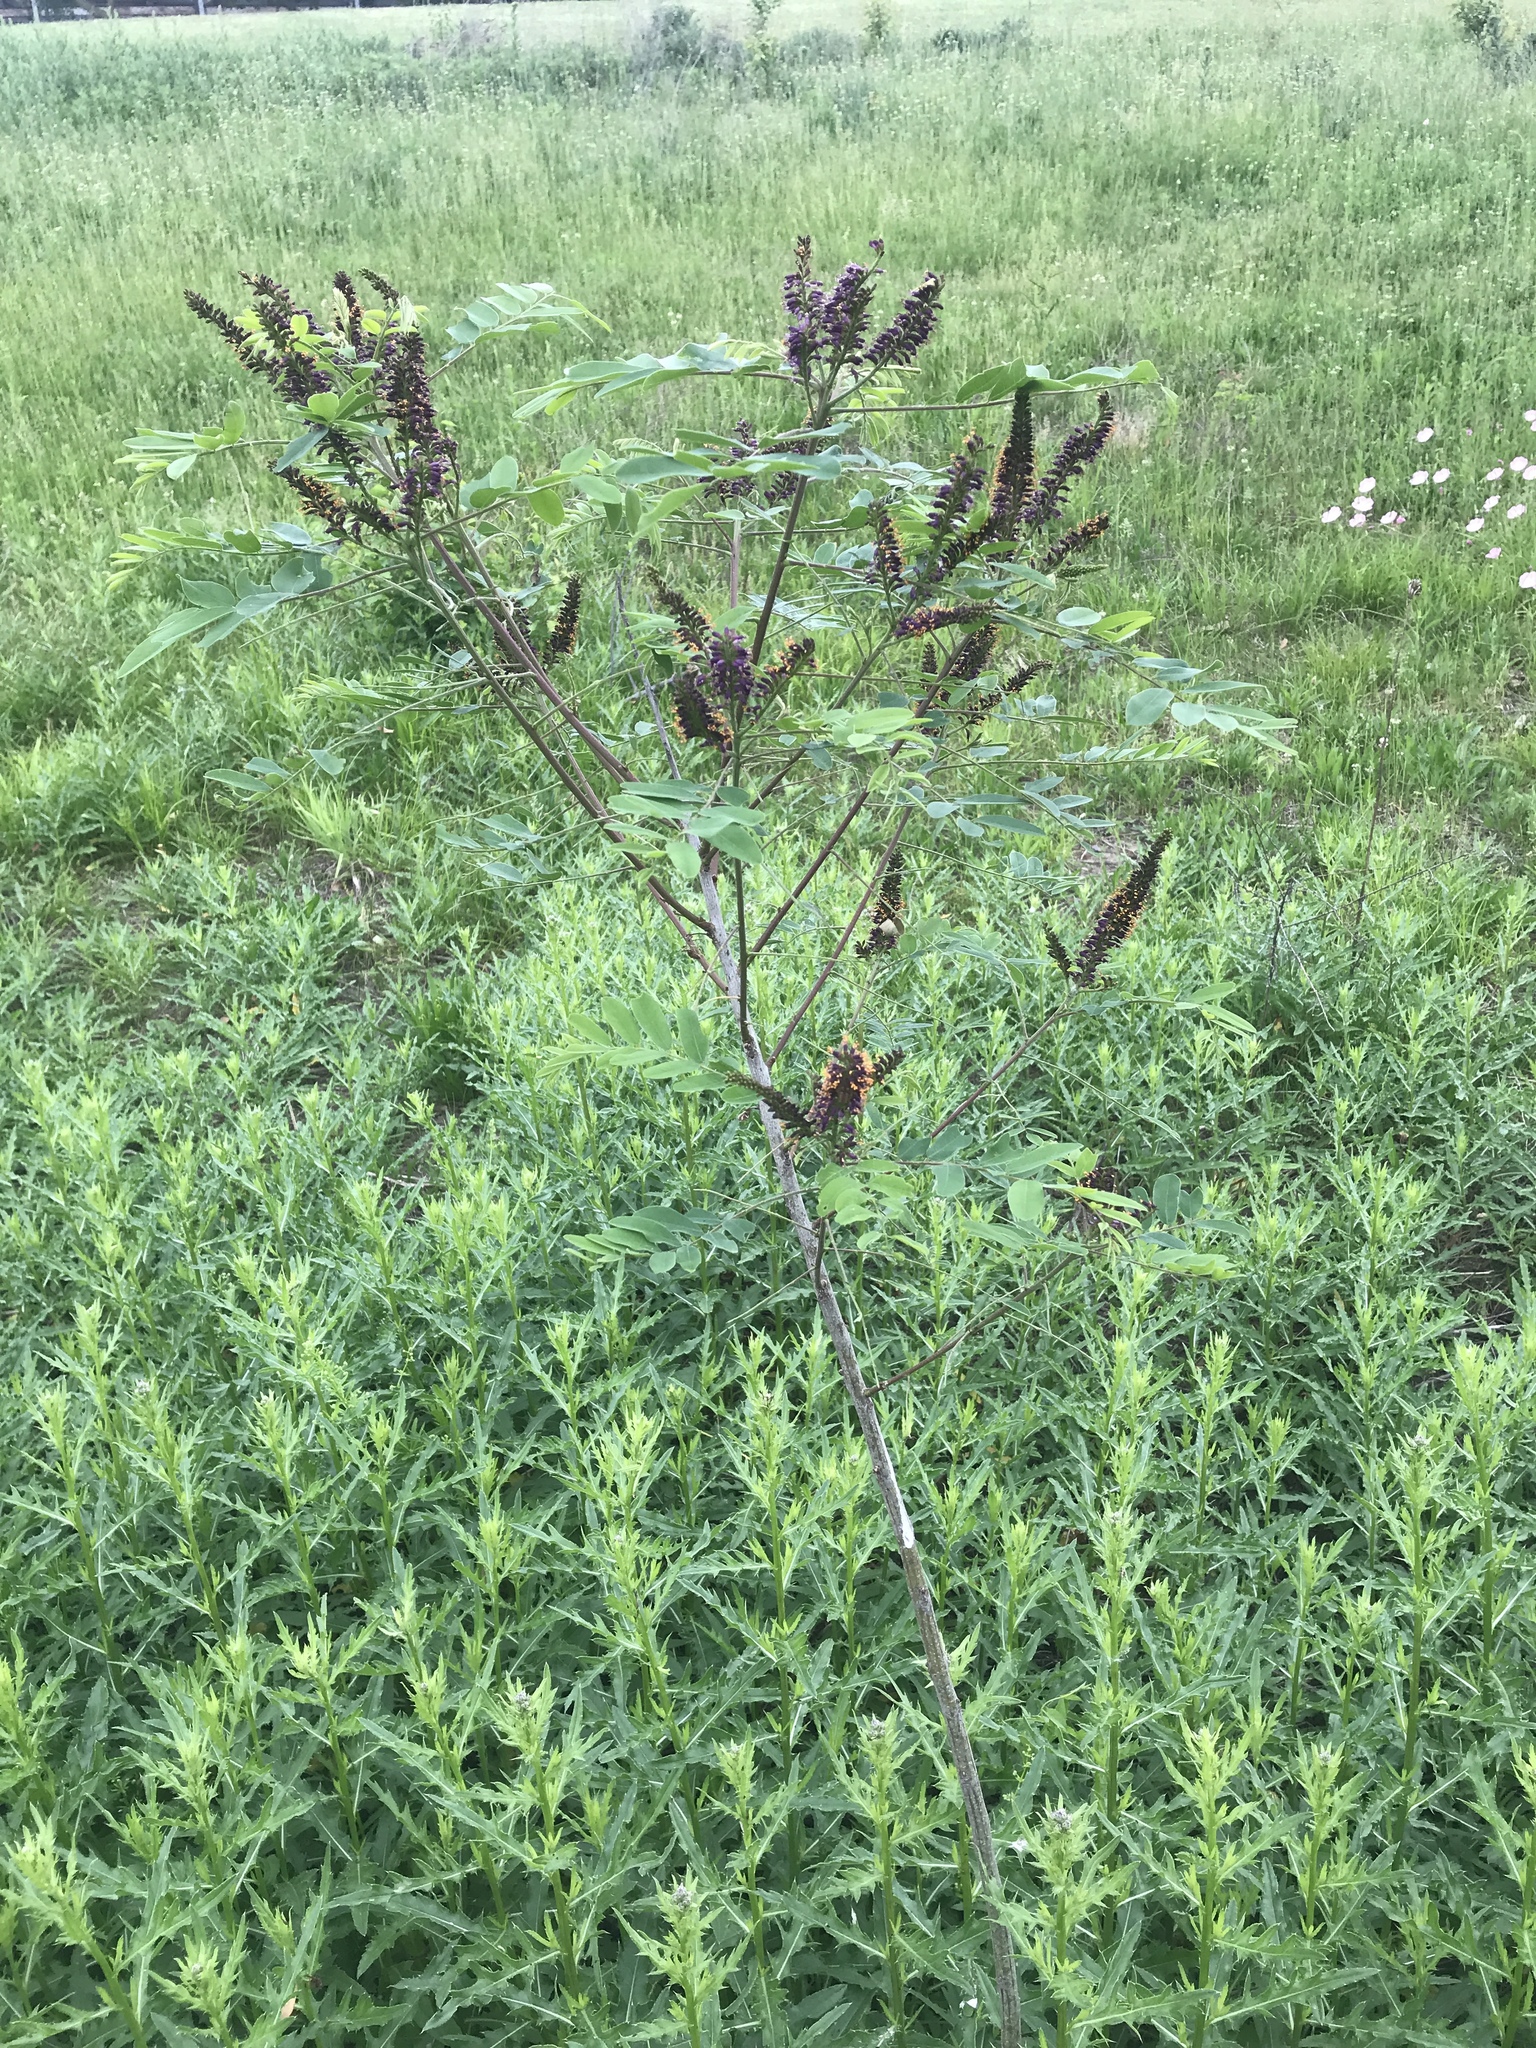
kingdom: Plantae
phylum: Tracheophyta
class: Magnoliopsida
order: Fabales
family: Fabaceae
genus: Amorpha
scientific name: Amorpha fruticosa
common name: False indigo
